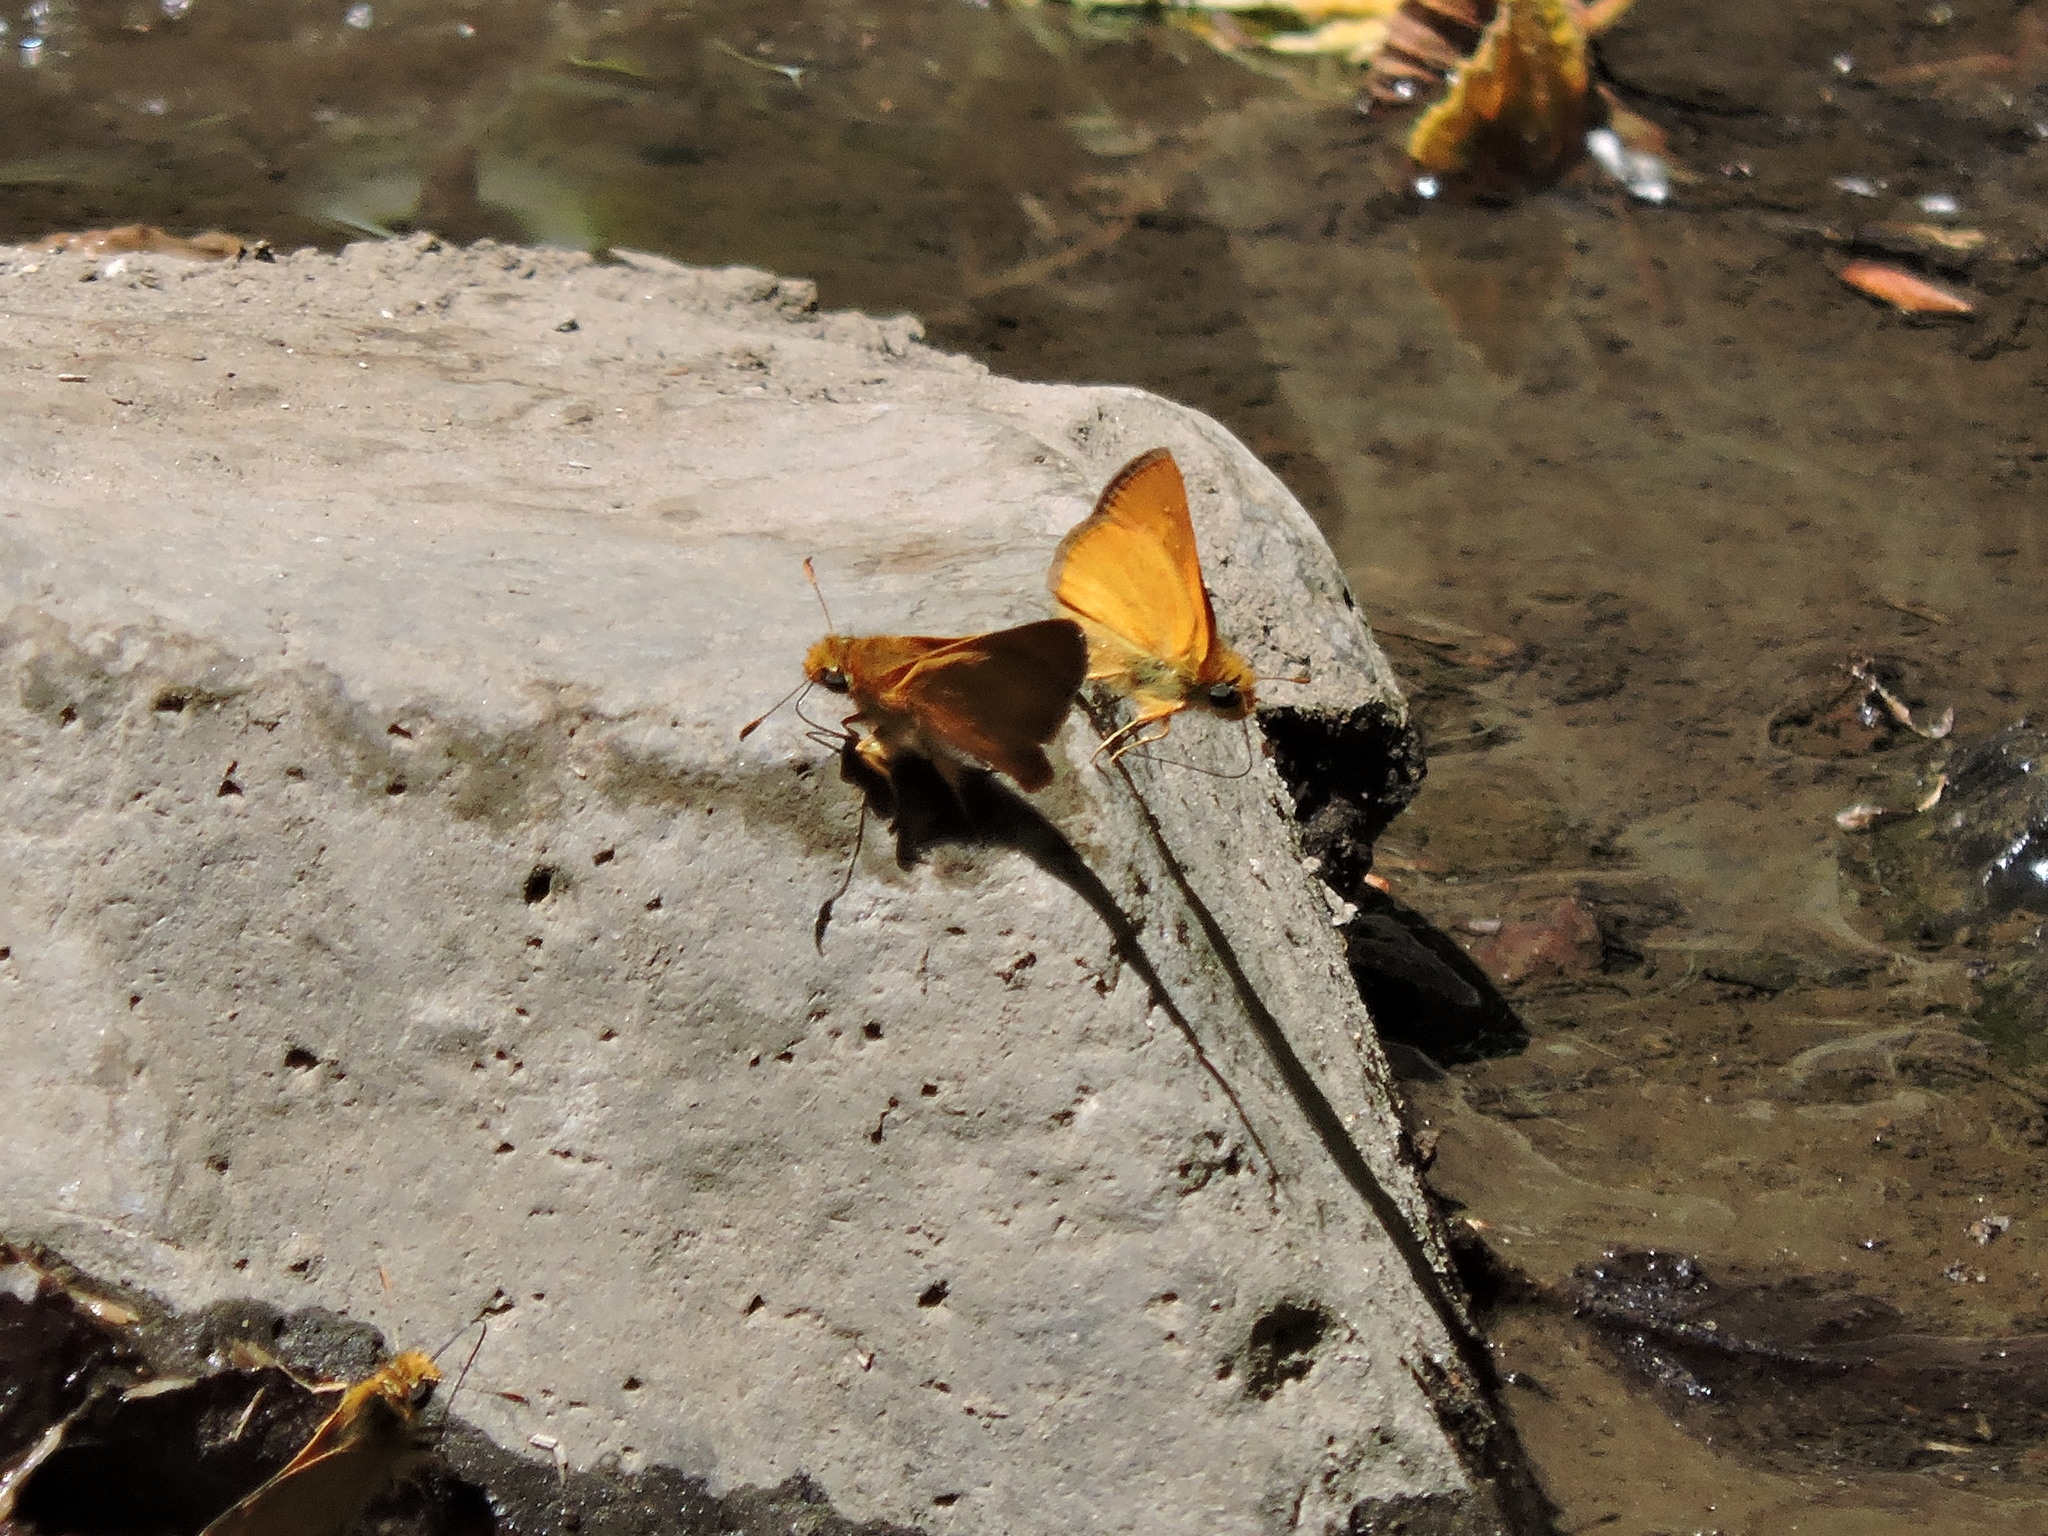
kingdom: Animalia
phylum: Arthropoda
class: Insecta
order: Lepidoptera
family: Hesperiidae
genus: Ochlodes
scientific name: Ochlodes agricola
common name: Rural skipper
